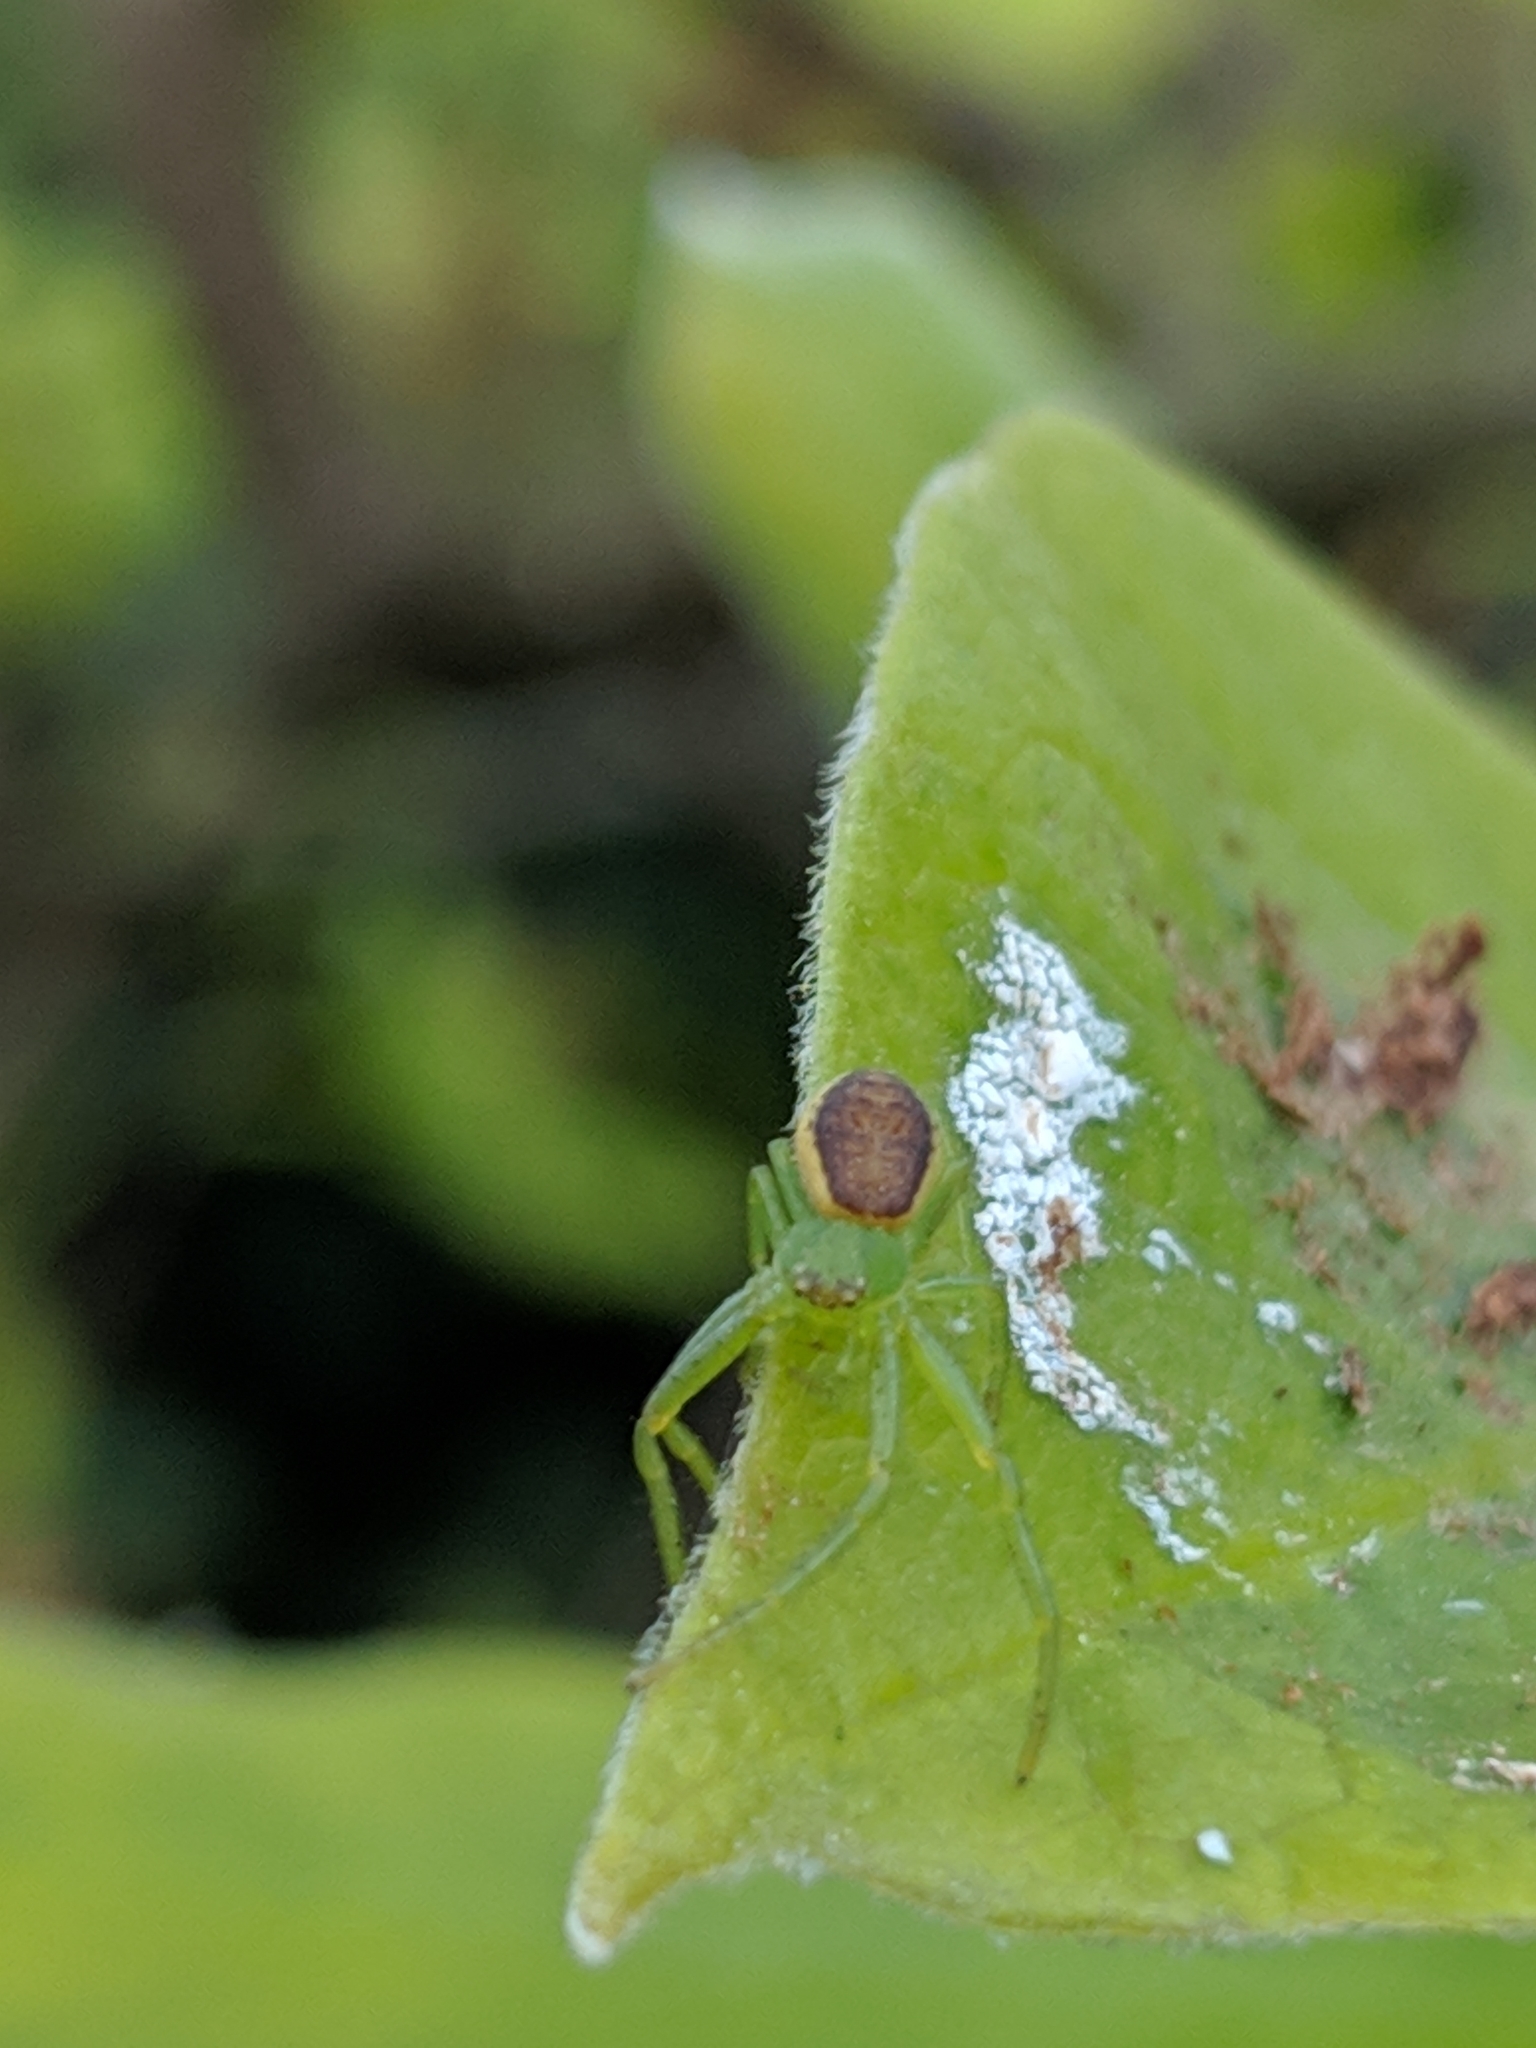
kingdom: Animalia
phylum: Arthropoda
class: Arachnida
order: Araneae
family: Thomisidae
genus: Diaea
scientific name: Diaea dorsata
